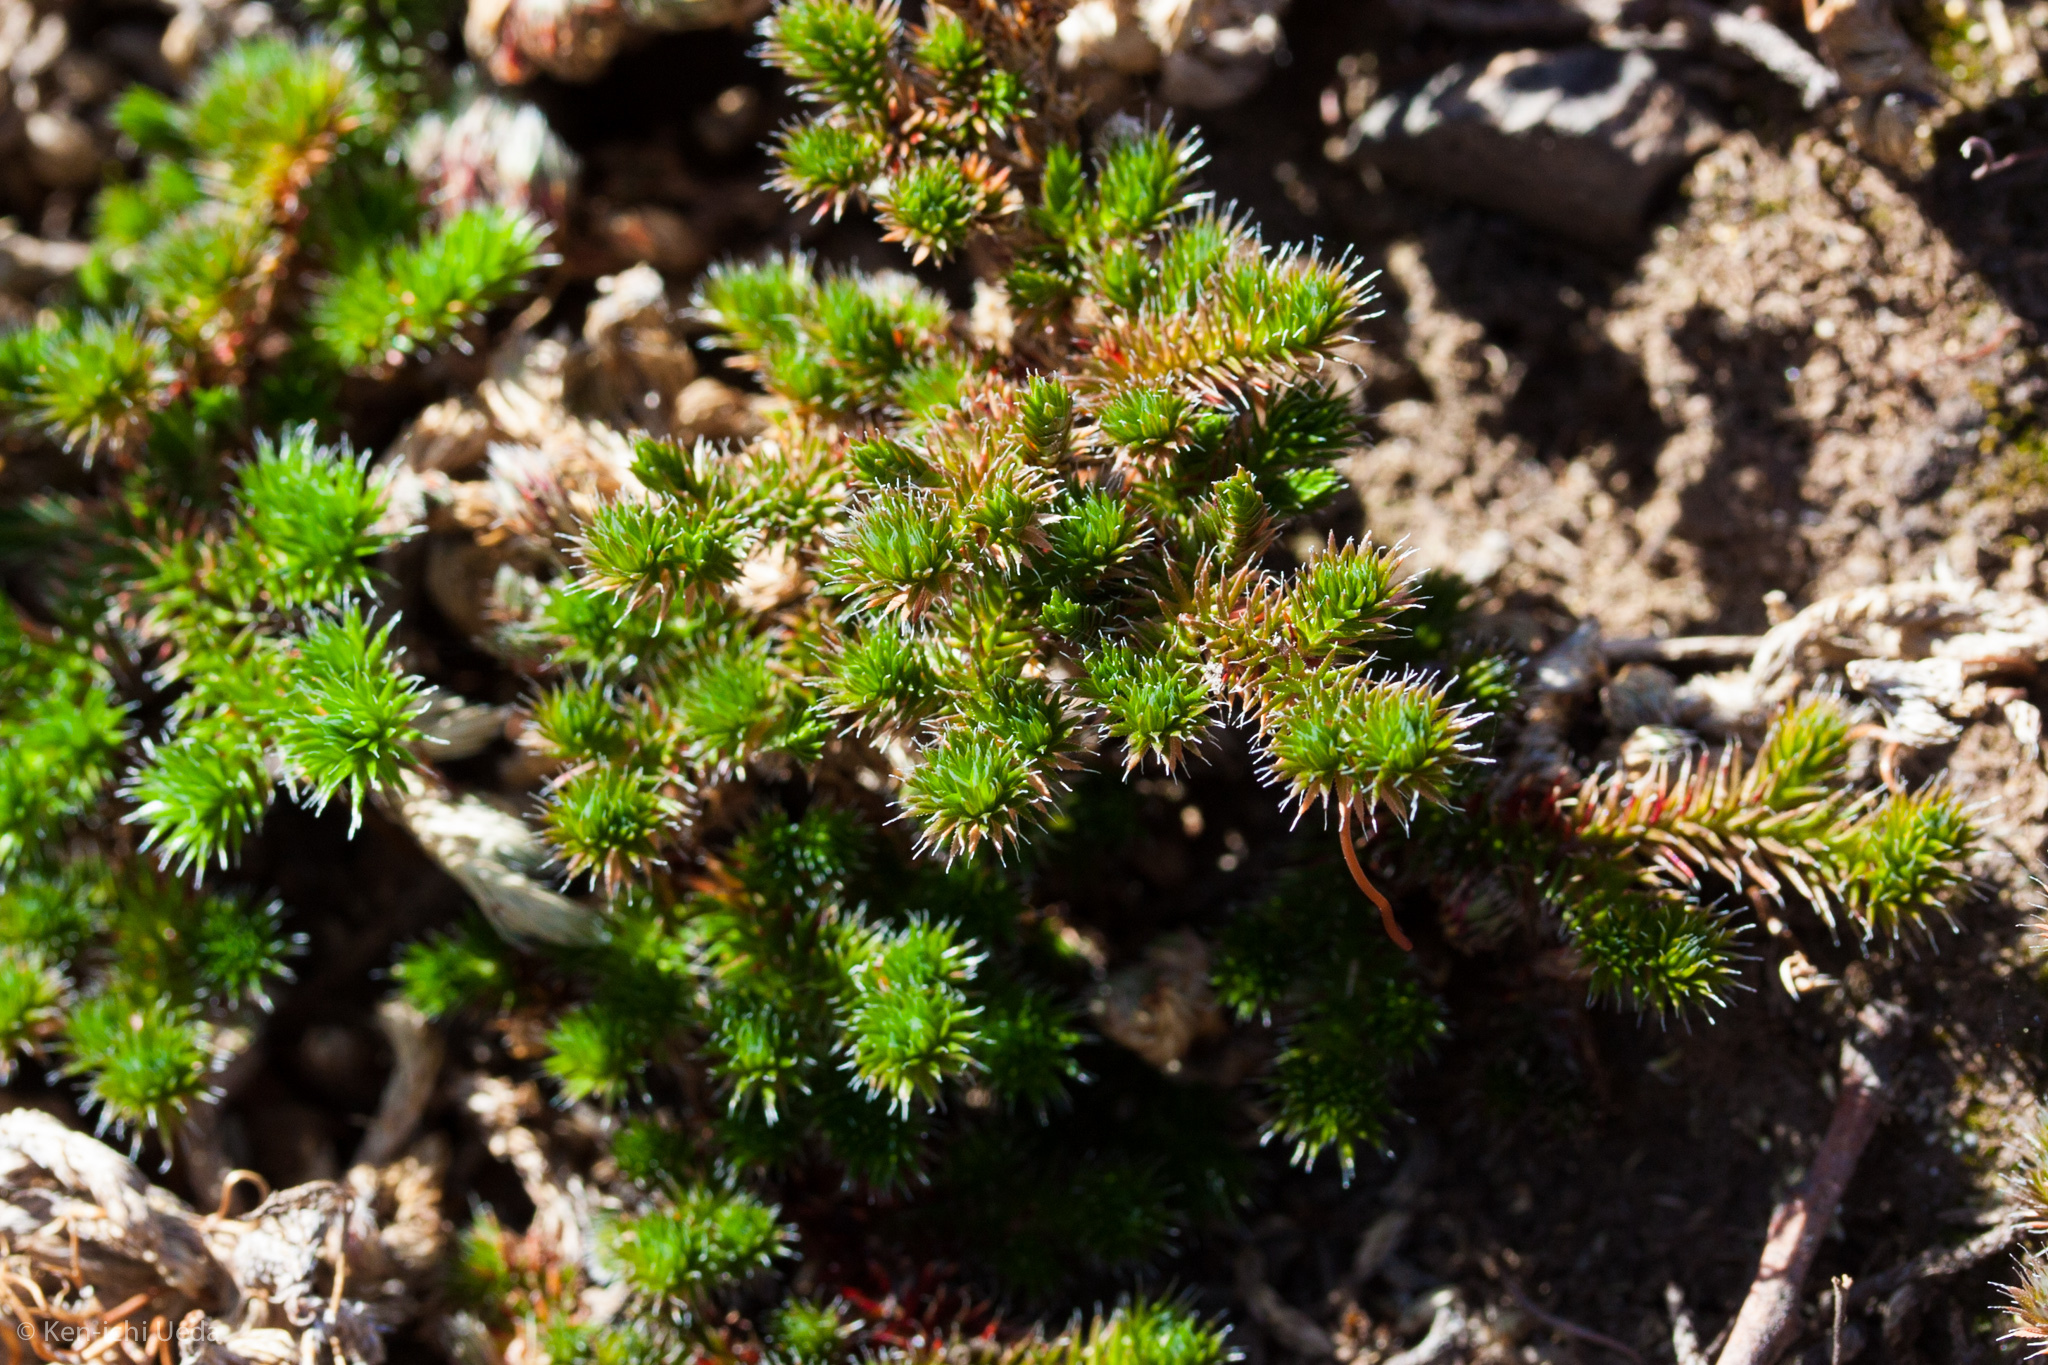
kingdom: Plantae
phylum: Tracheophyta
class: Lycopodiopsida
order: Selaginellales
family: Selaginellaceae
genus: Selaginella
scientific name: Selaginella hansenii
